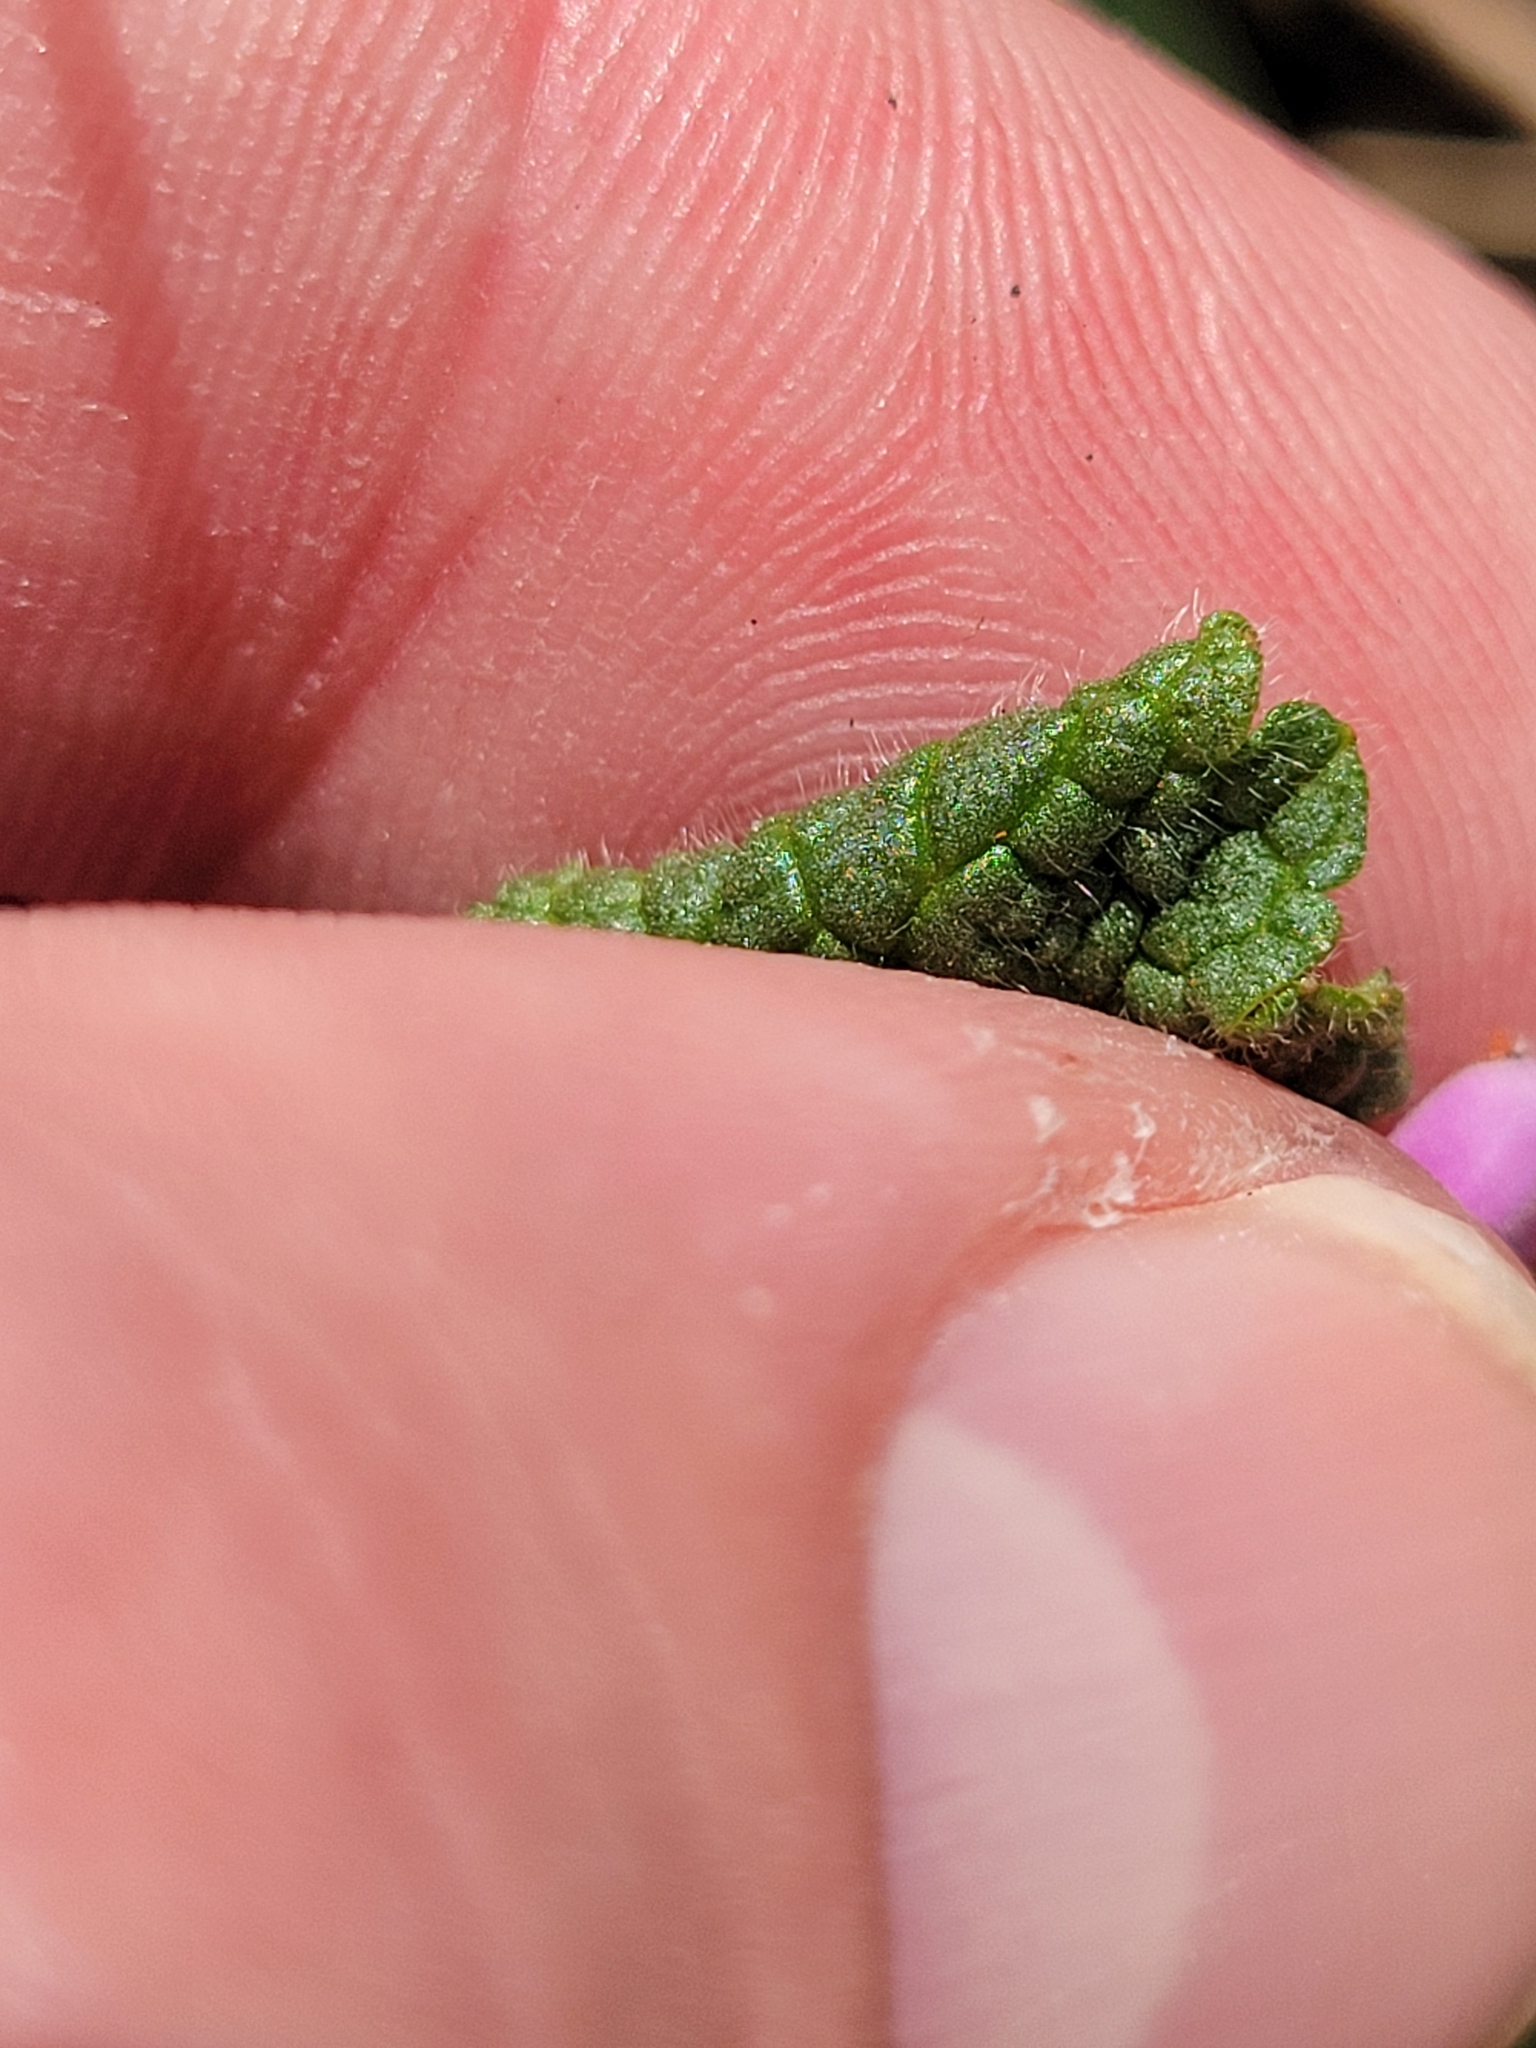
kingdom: Plantae
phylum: Tracheophyta
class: Magnoliopsida
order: Lamiales
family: Lamiaceae
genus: Lamium
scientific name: Lamium purpureum
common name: Red dead-nettle
